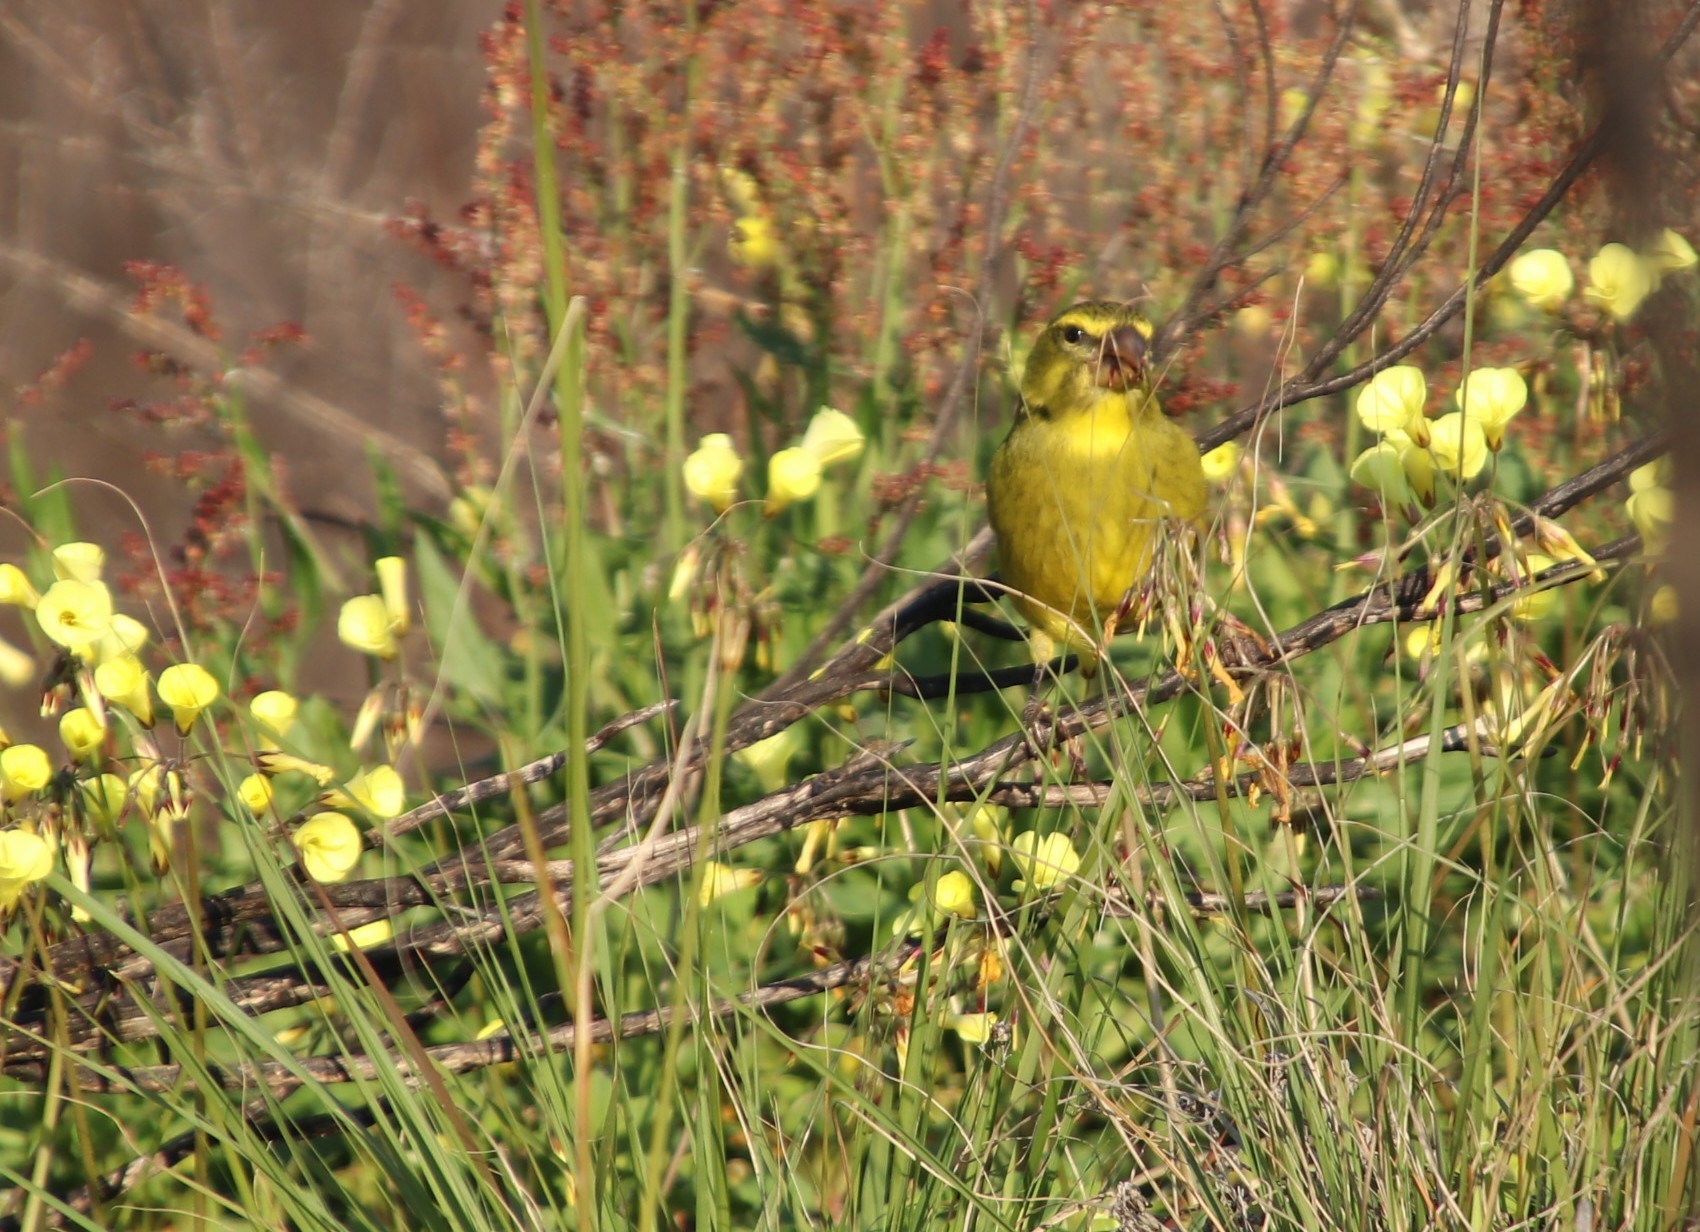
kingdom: Animalia
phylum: Chordata
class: Aves
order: Passeriformes
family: Fringillidae
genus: Crithagra
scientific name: Crithagra sulphurata
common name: Brimstone canary
